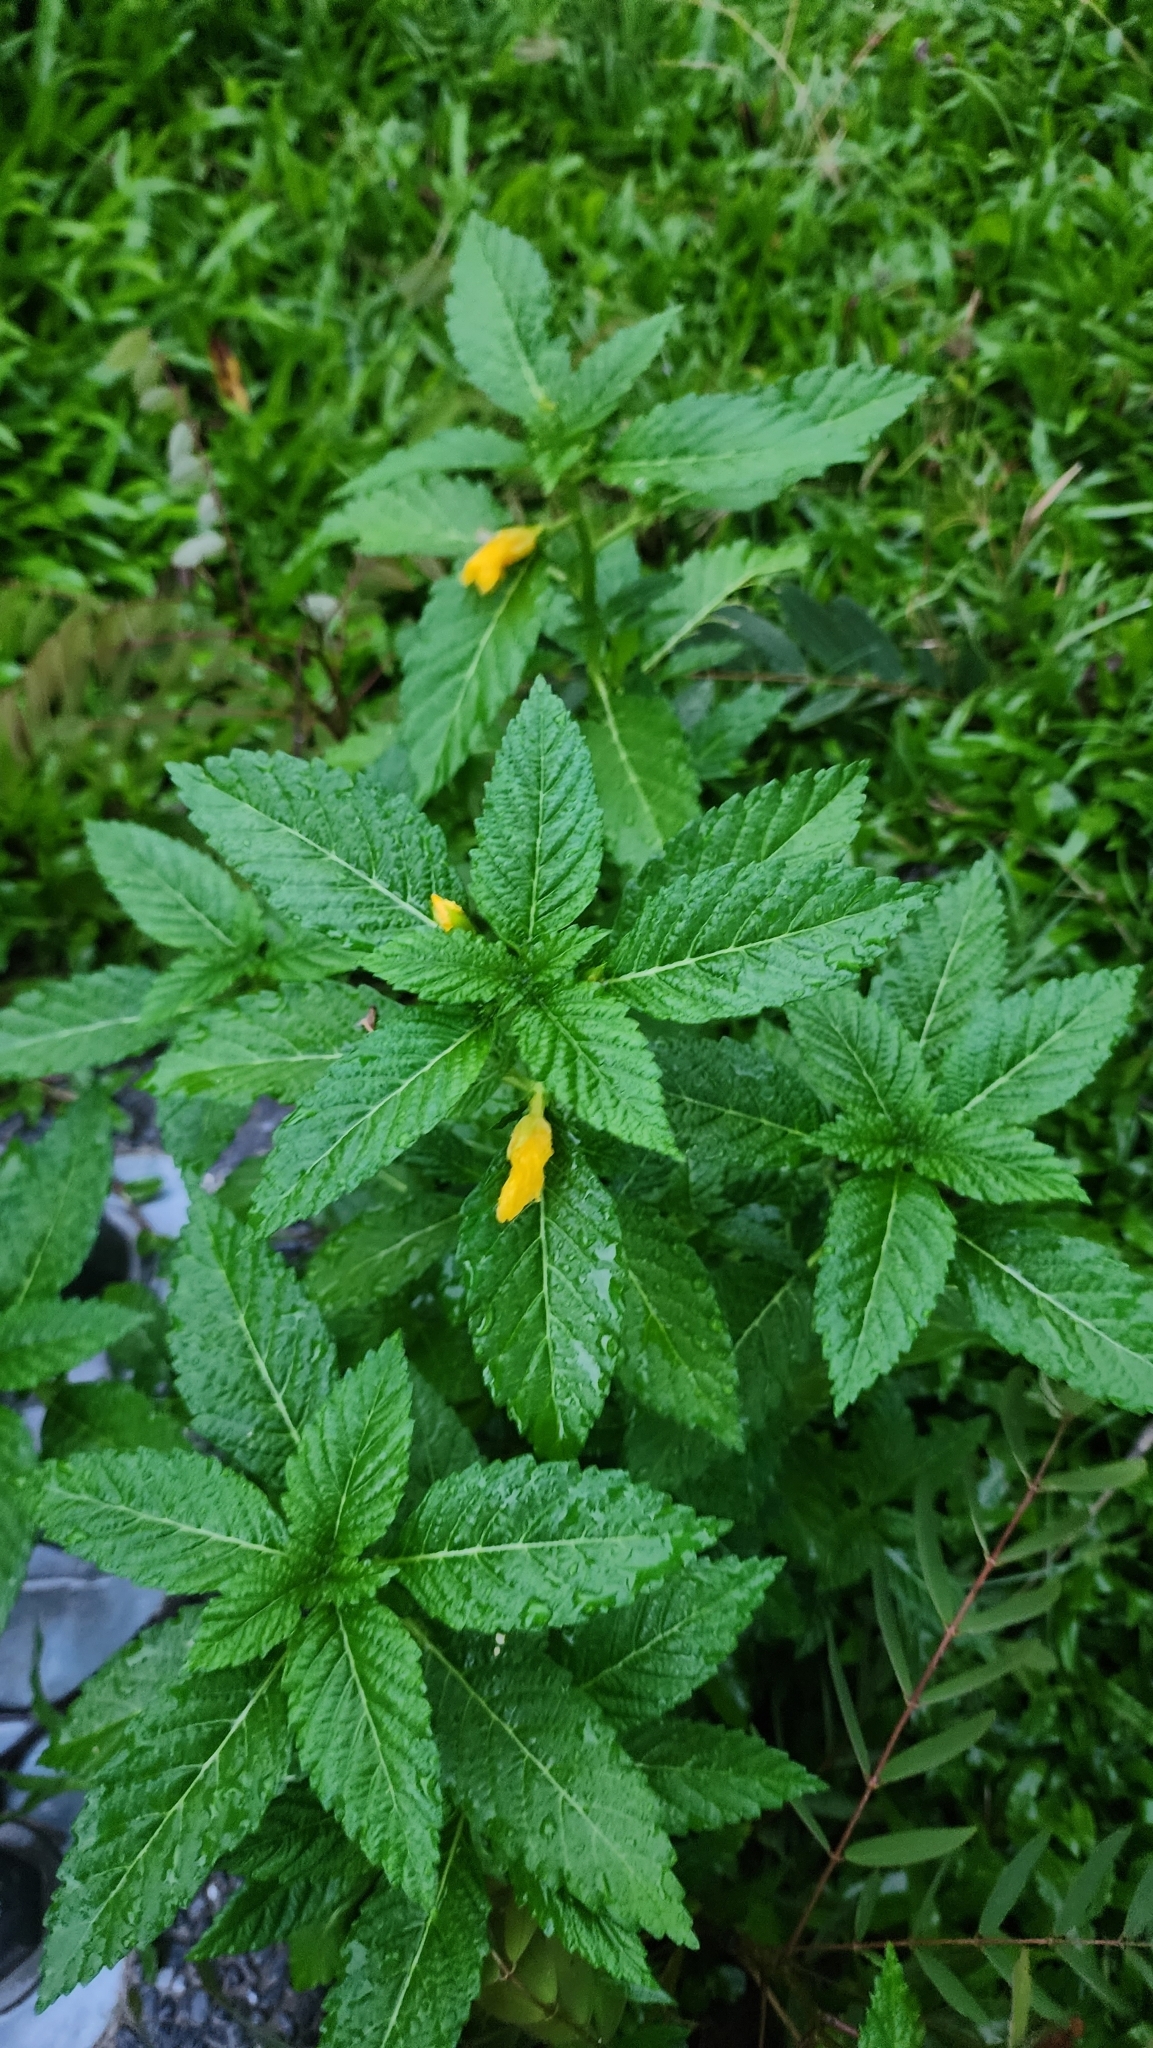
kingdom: Plantae
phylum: Tracheophyta
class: Magnoliopsida
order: Malpighiales
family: Turneraceae
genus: Turnera
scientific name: Turnera ulmifolia
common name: Ramgoat dashalong
